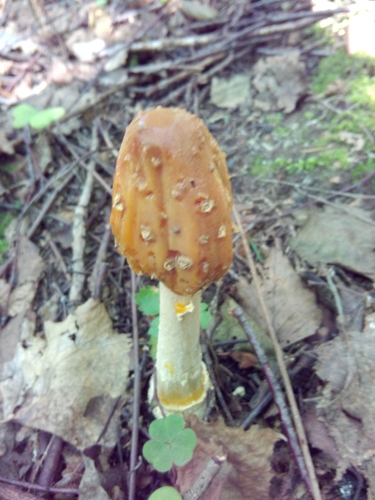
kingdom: Fungi
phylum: Basidiomycota
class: Agaricomycetes
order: Agaricales
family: Amanitaceae
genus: Amanita
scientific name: Amanita
